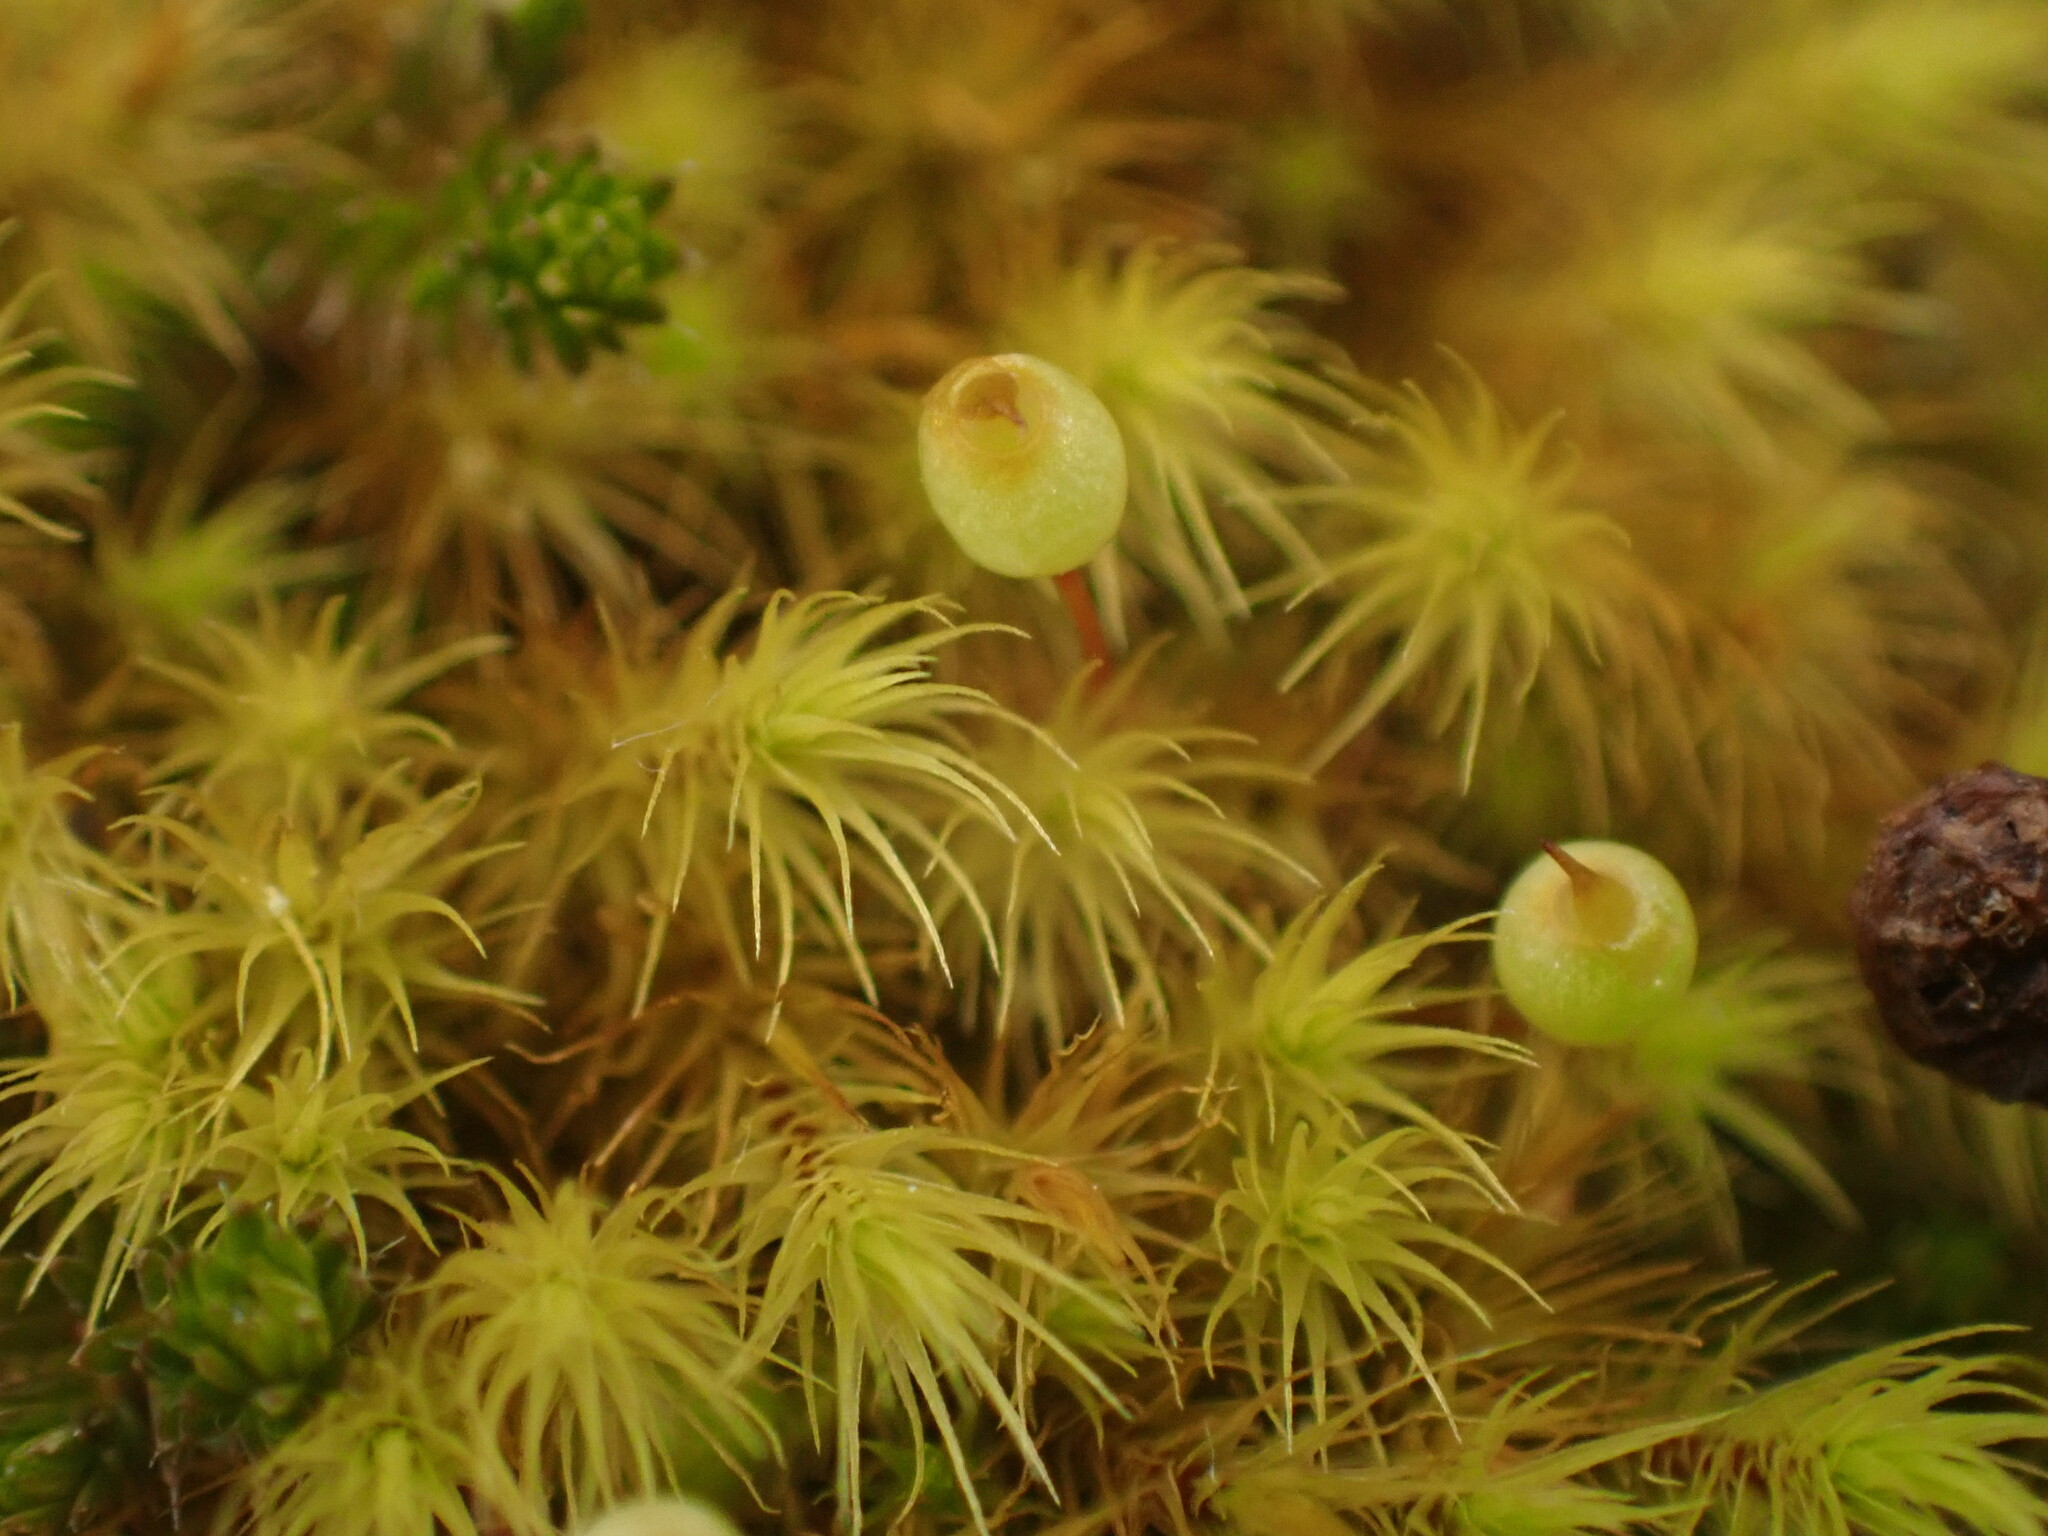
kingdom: Plantae
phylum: Bryophyta
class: Bryopsida
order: Bartramiales
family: Bartramiaceae
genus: Bartramia
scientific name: Bartramia ithyphylla
